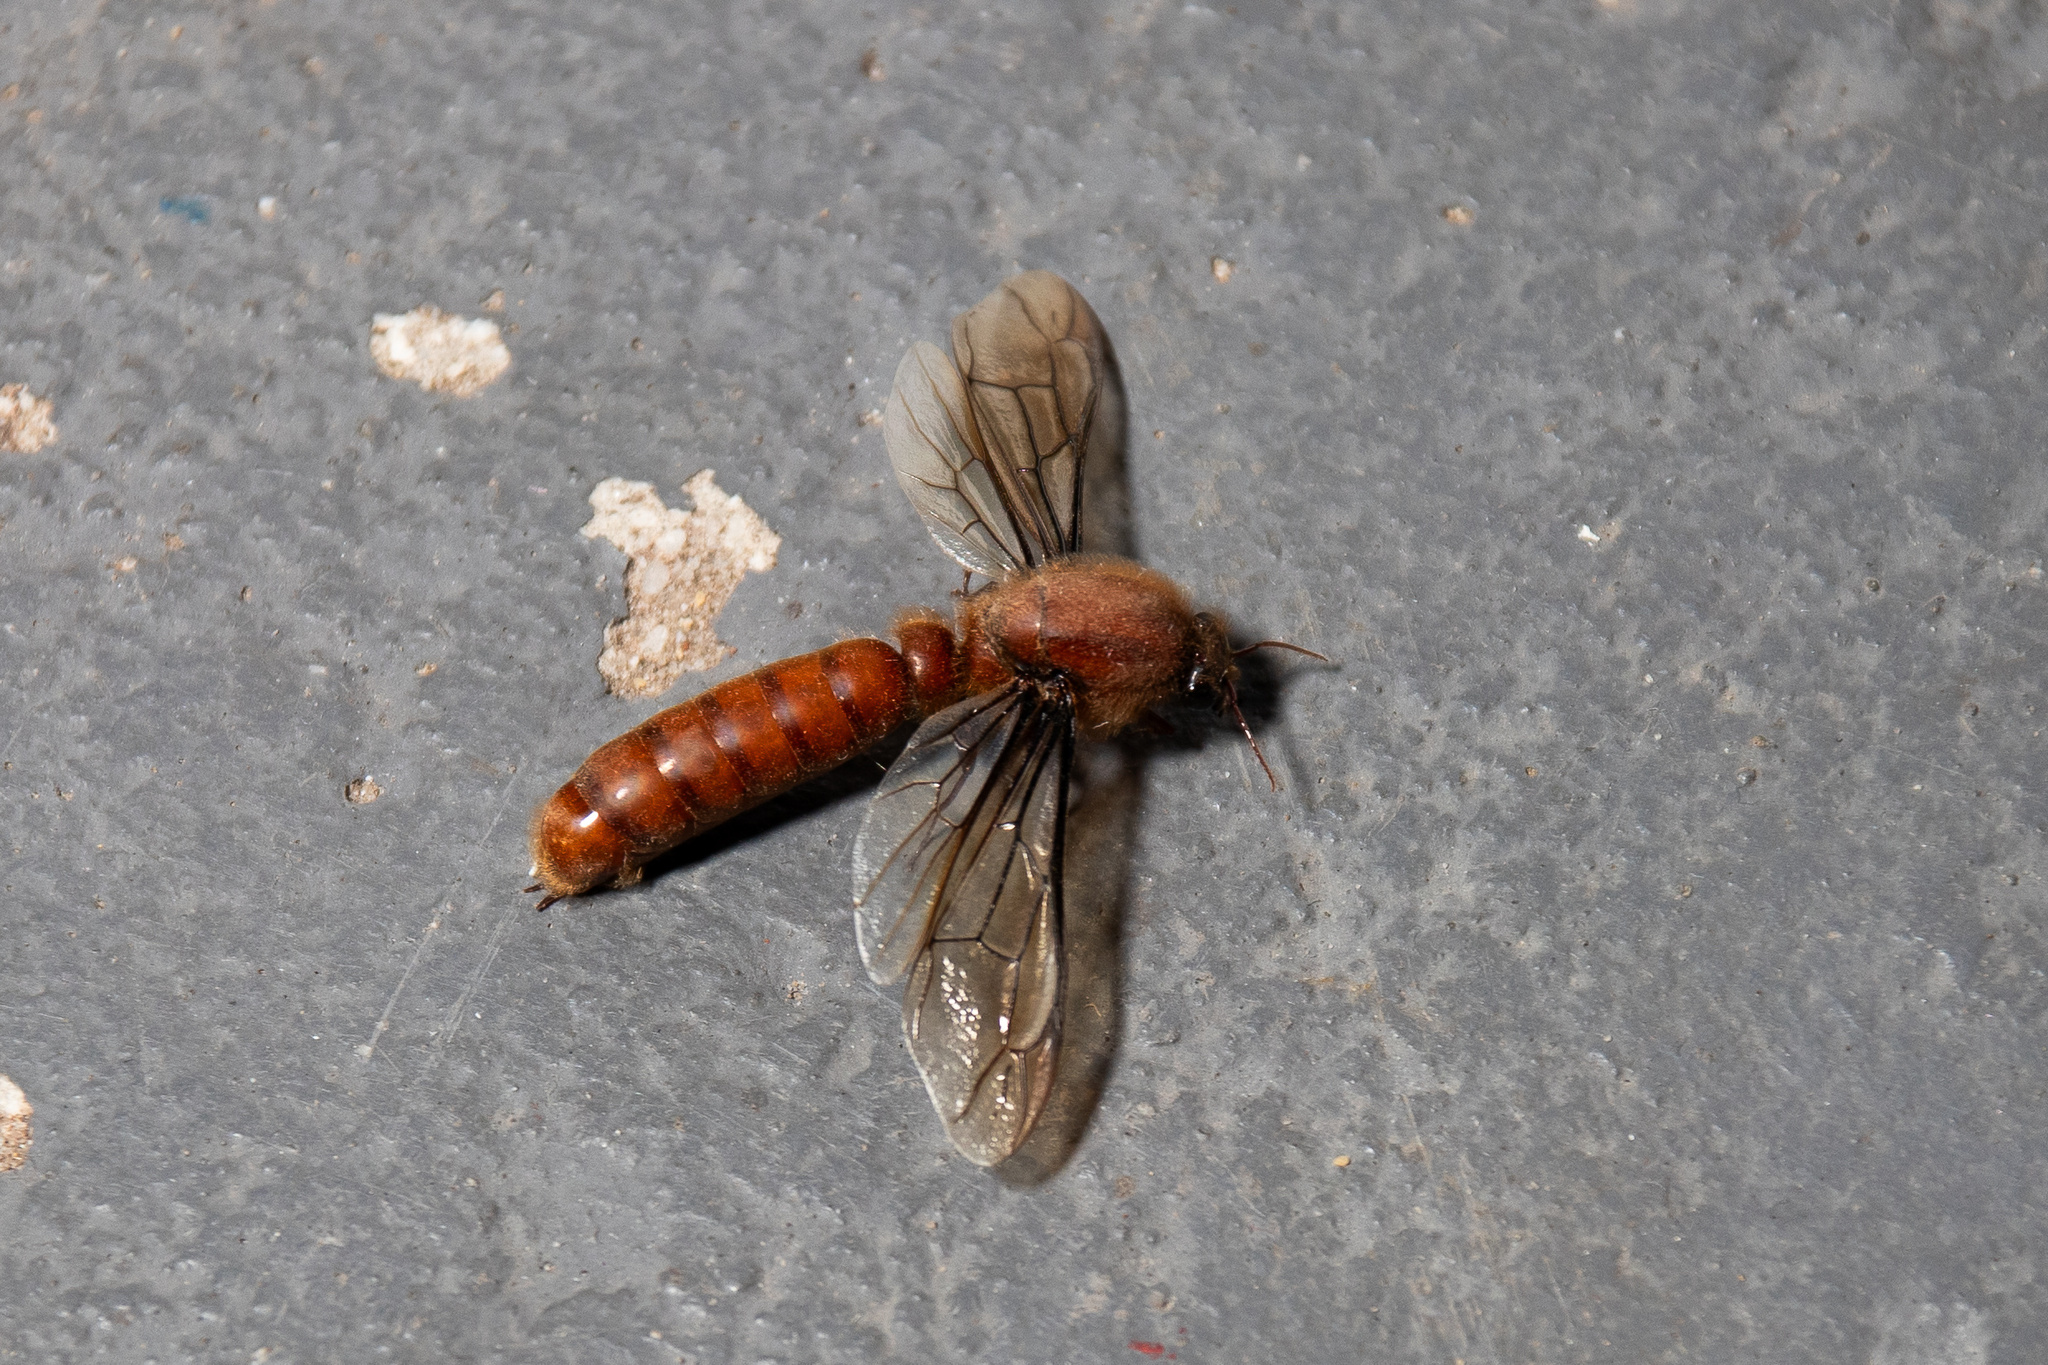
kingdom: Animalia
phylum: Arthropoda
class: Insecta
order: Hymenoptera
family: Formicidae
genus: Dorylus
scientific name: Dorylus helvolus
